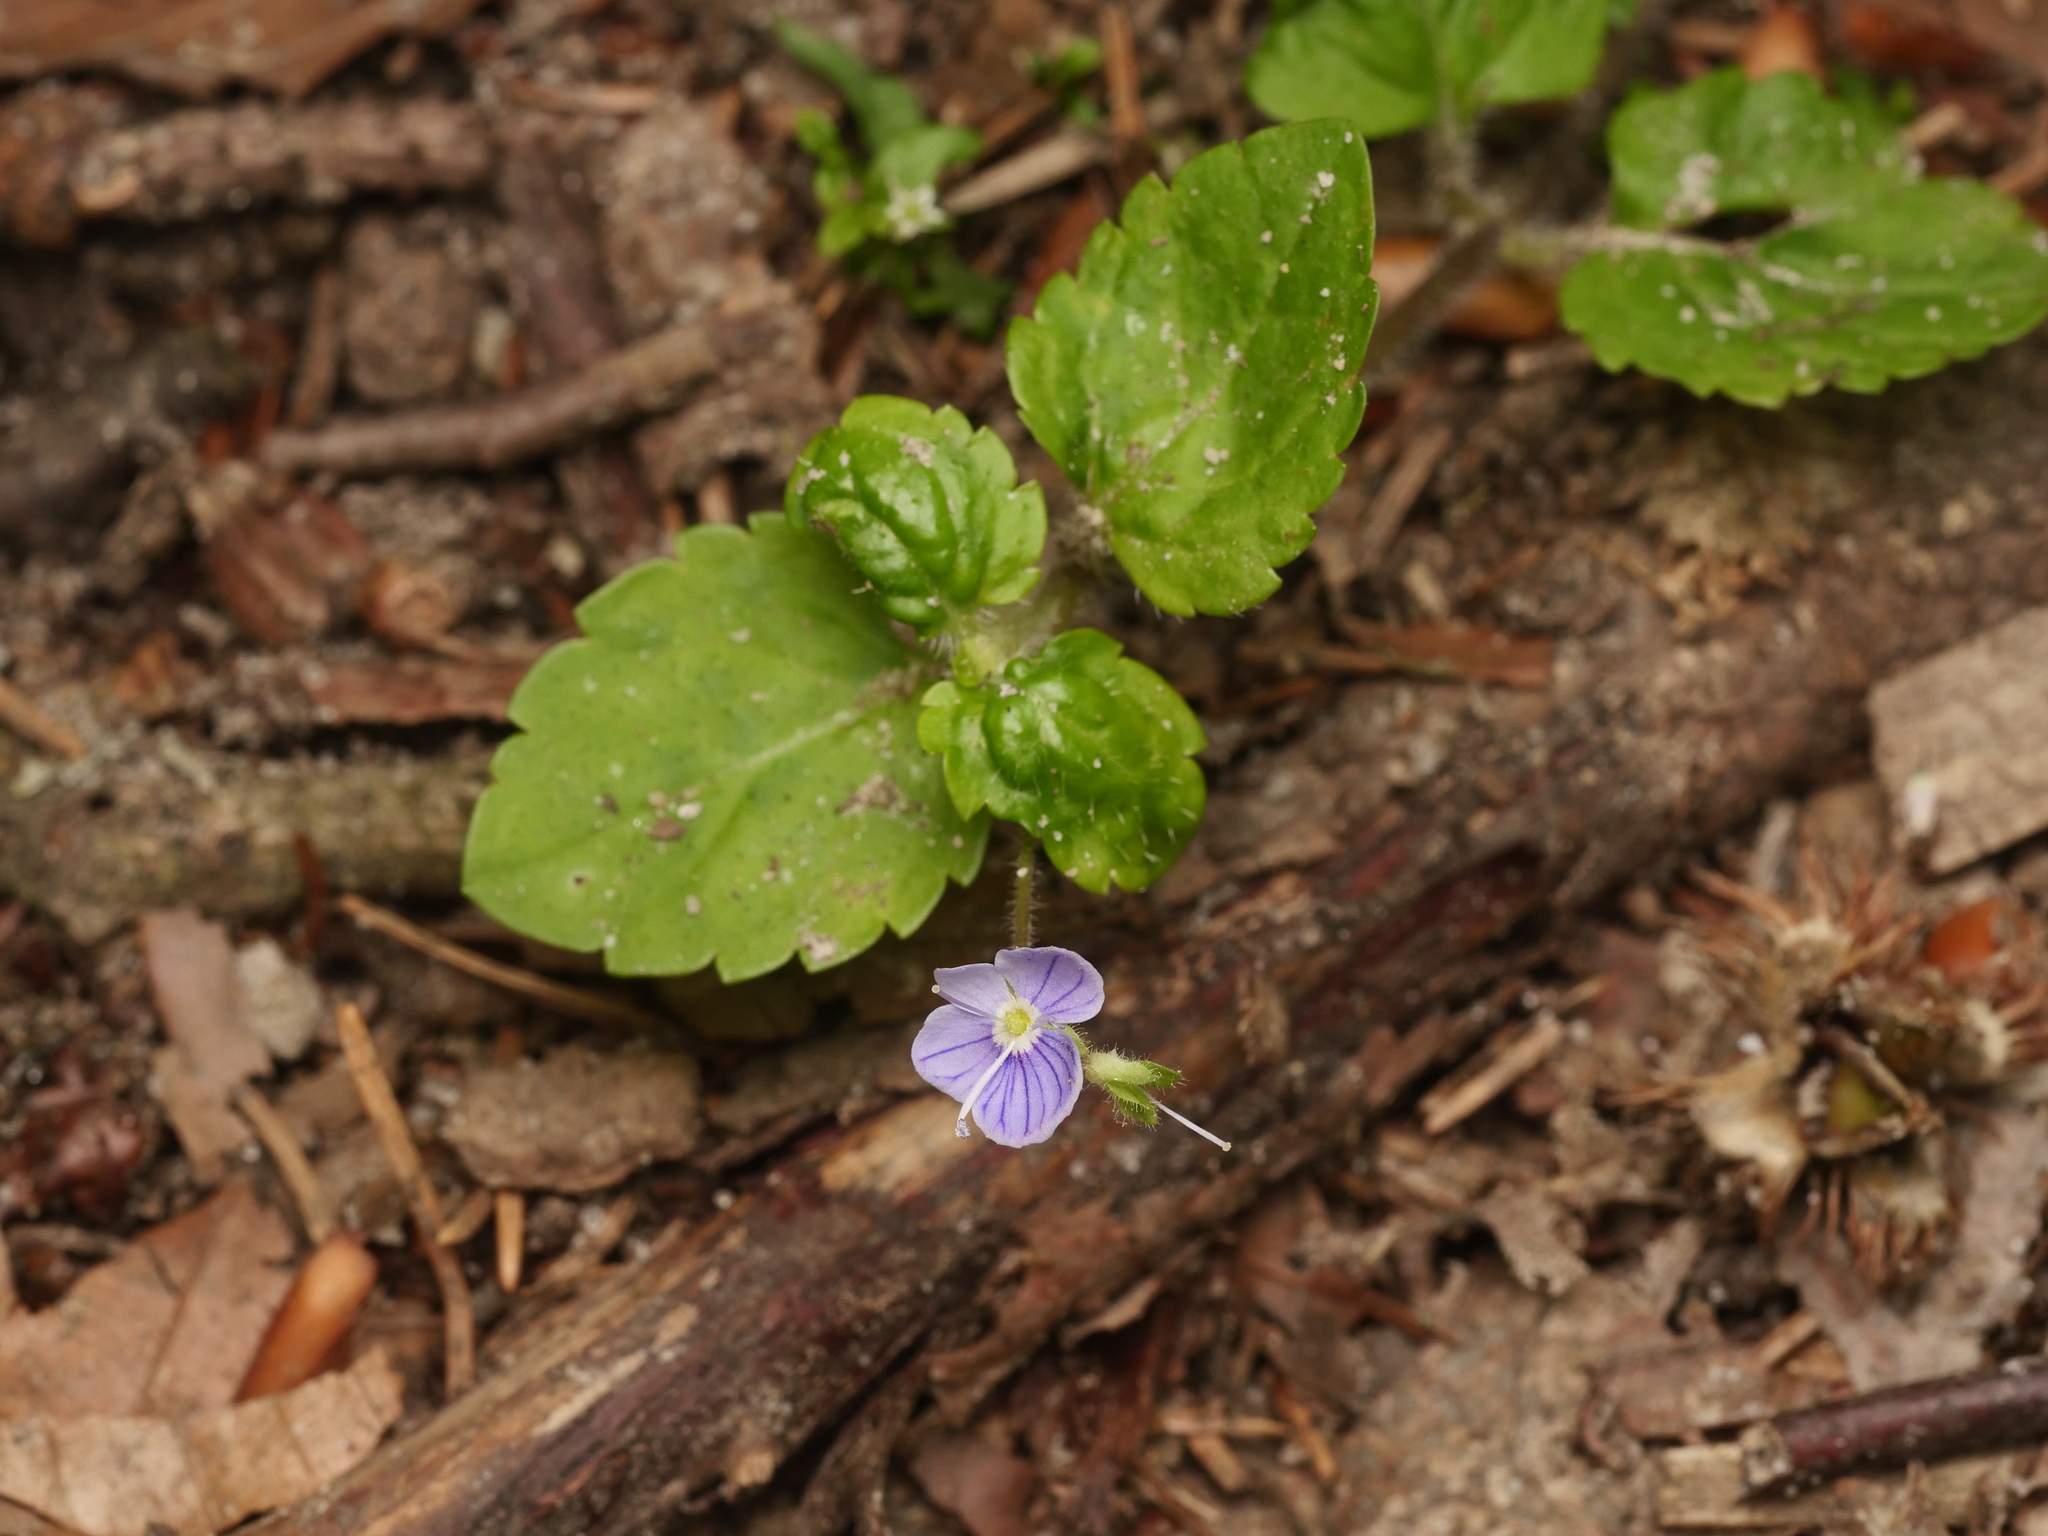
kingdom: Plantae
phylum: Tracheophyta
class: Magnoliopsida
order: Lamiales
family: Plantaginaceae
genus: Veronica
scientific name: Veronica montana
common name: Wood speedwell
